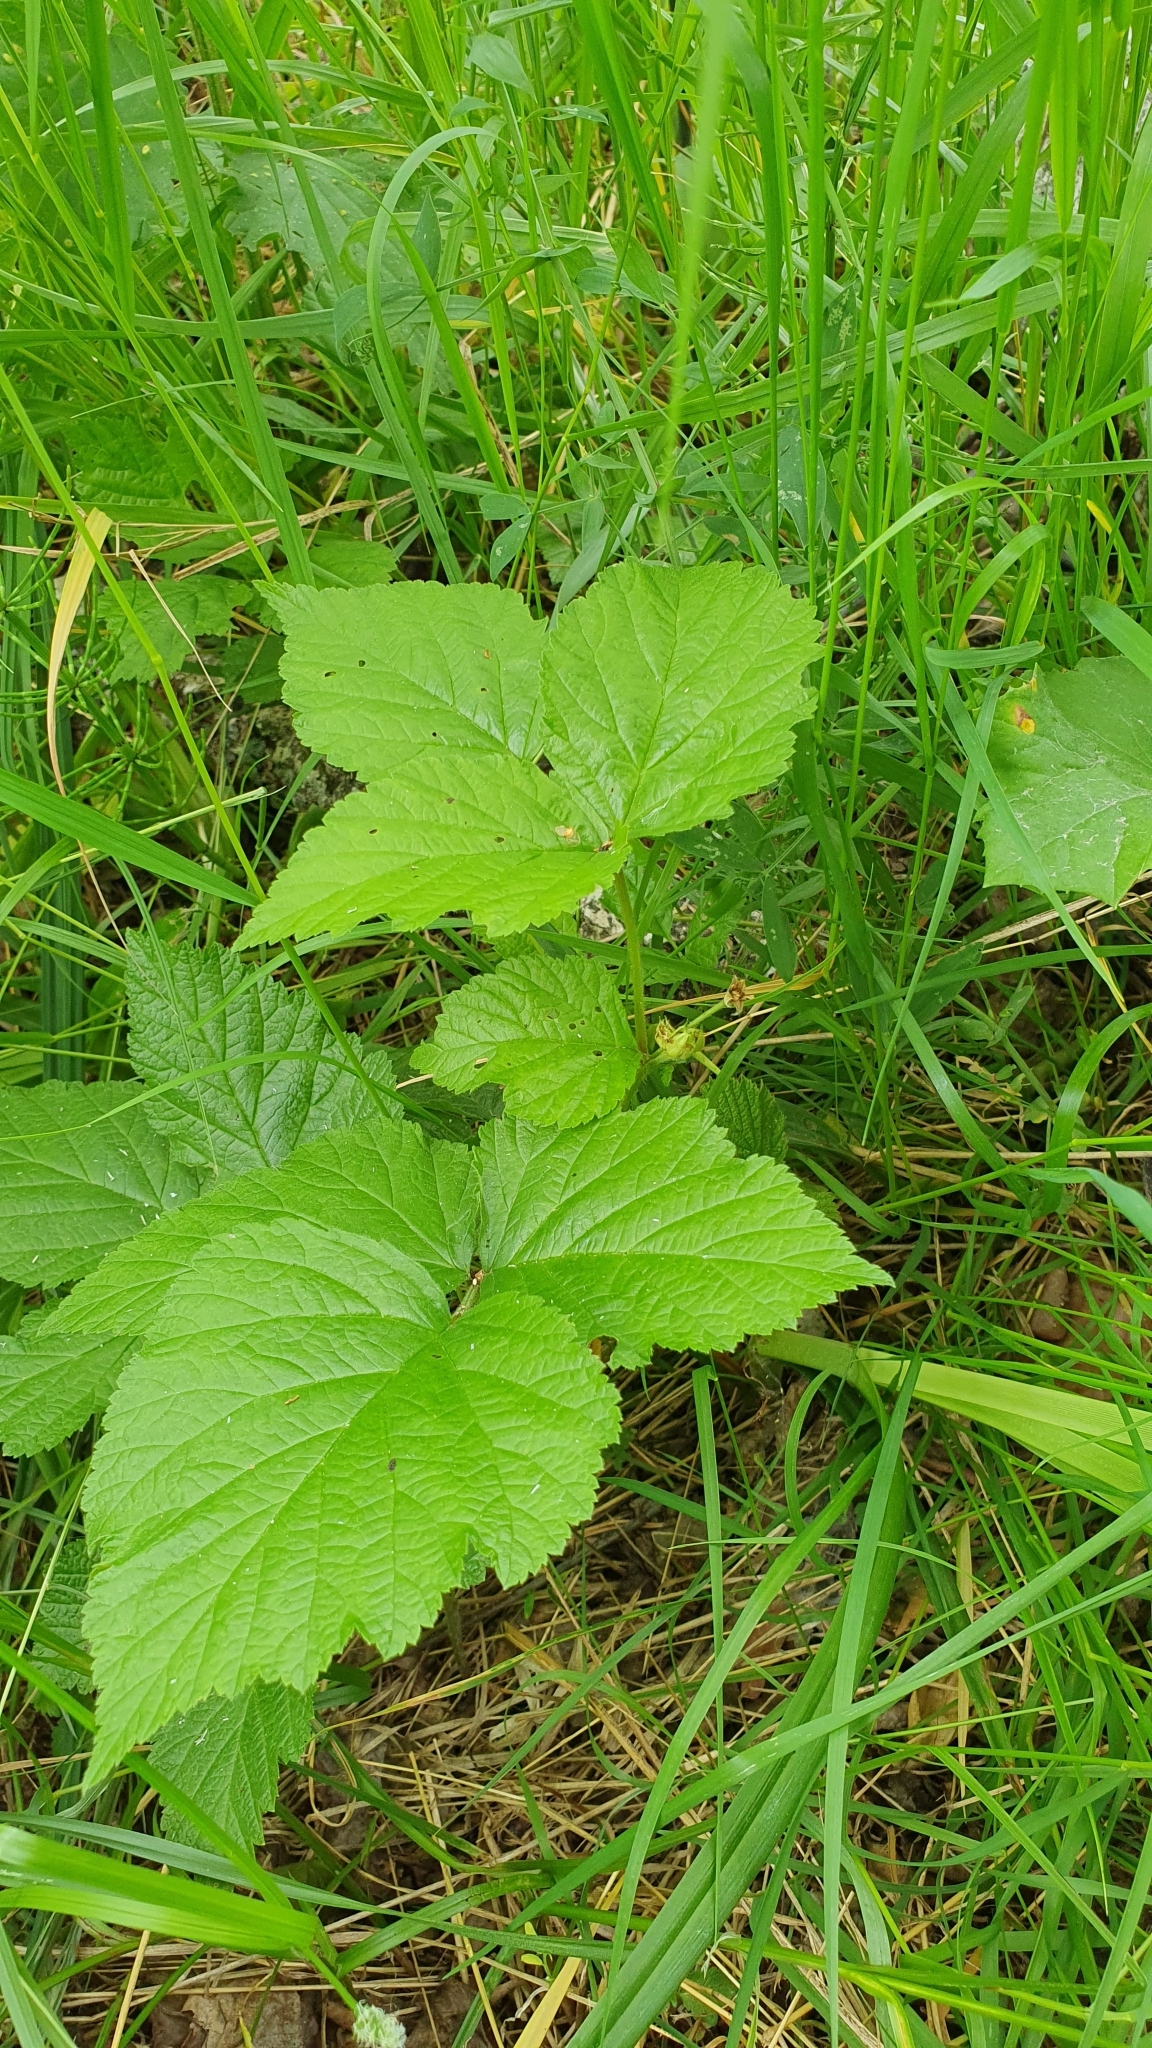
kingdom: Plantae
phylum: Tracheophyta
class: Magnoliopsida
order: Rosales
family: Rosaceae
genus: Rubus
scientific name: Rubus saxatilis
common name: Stone bramble
